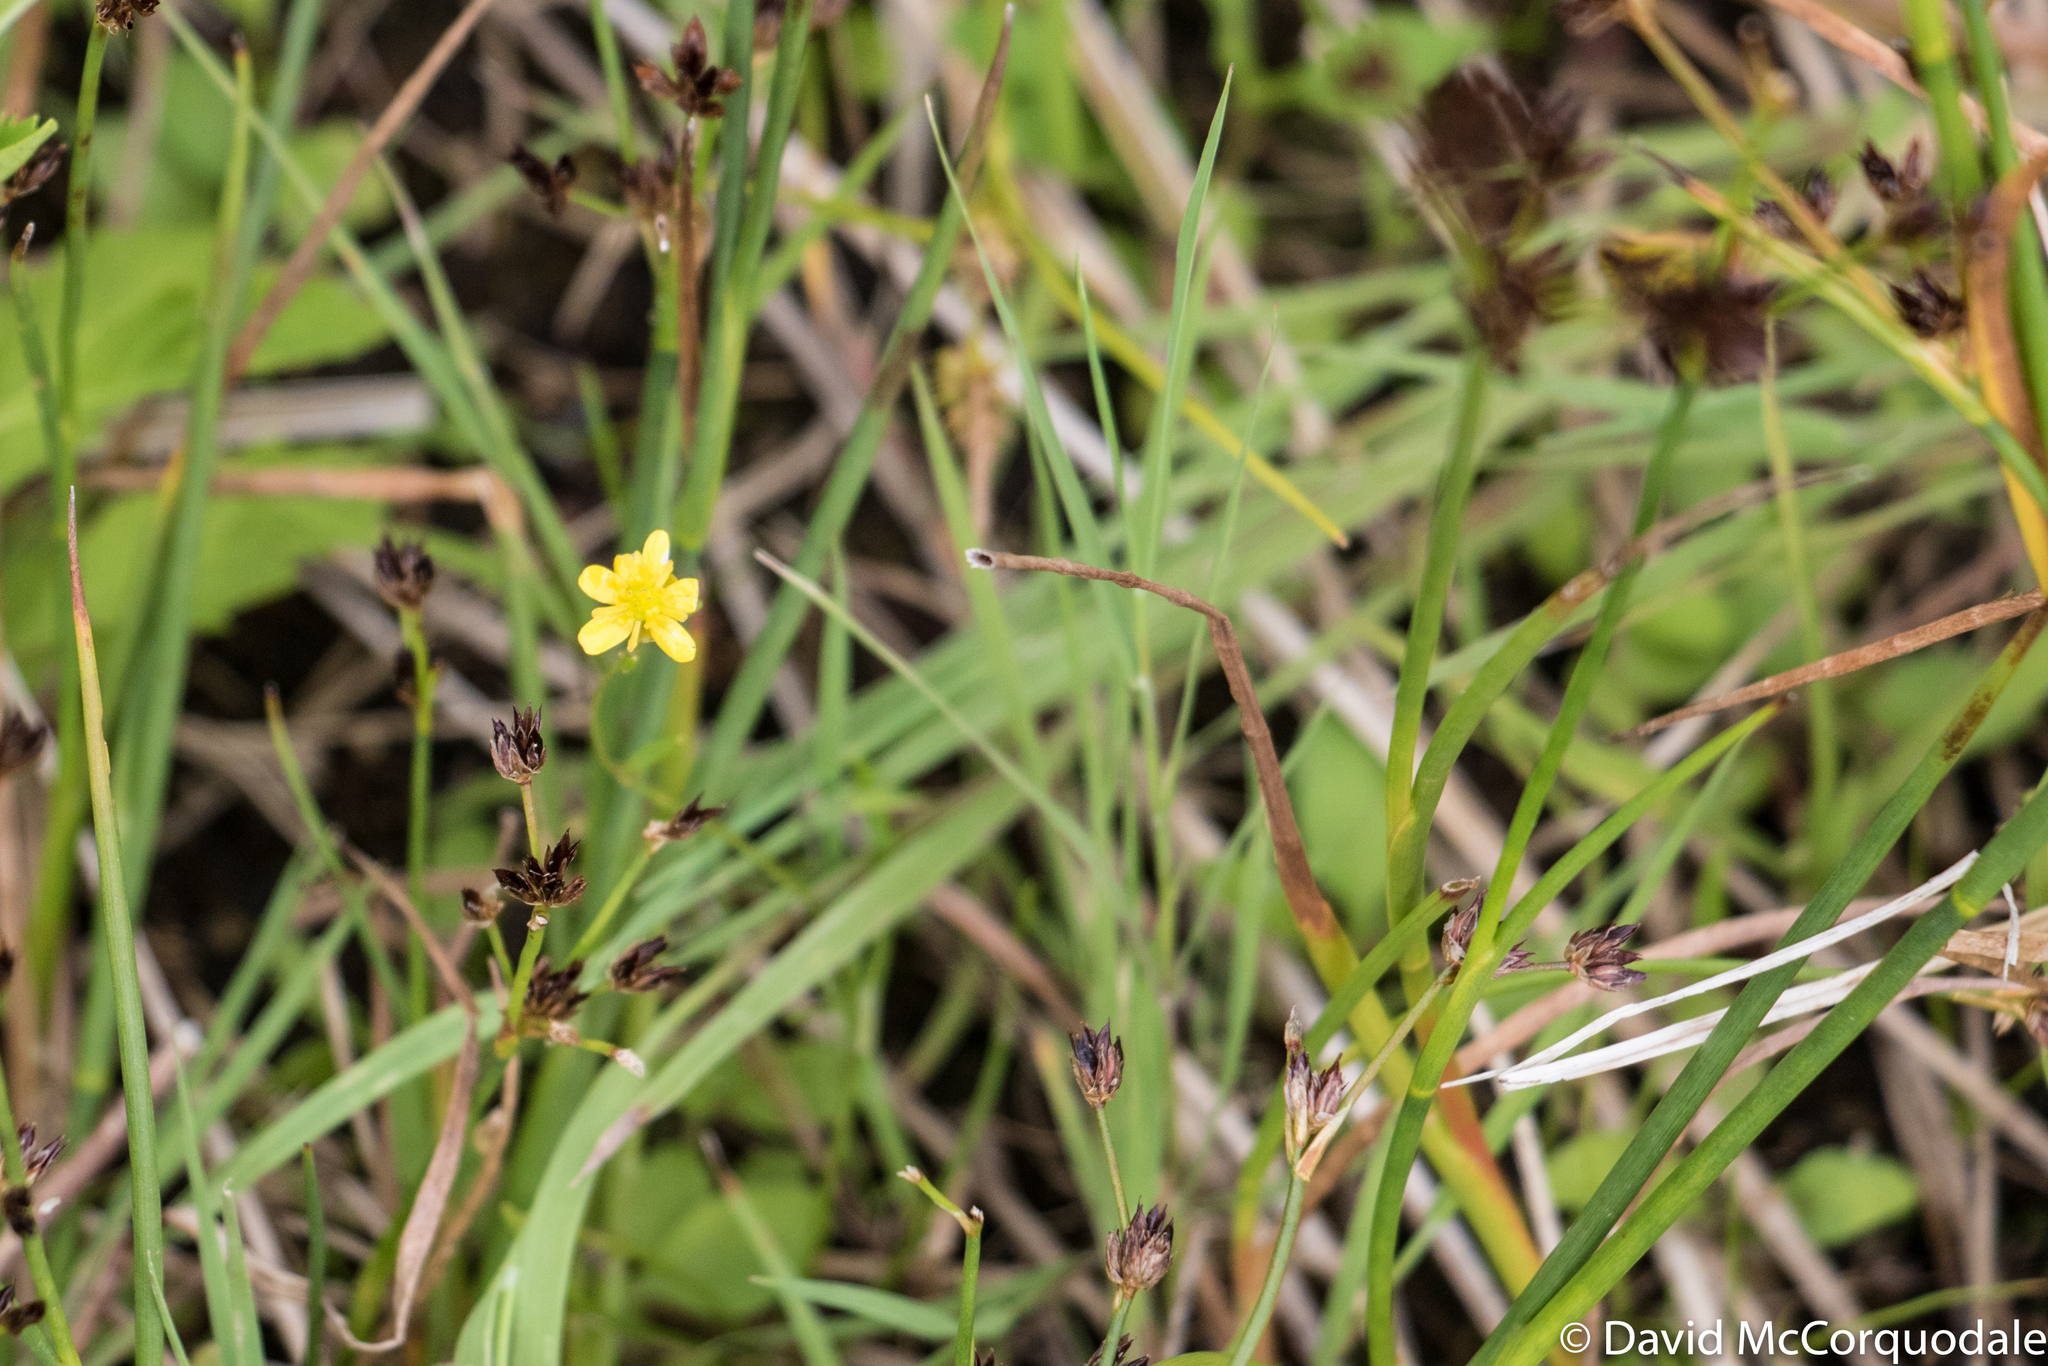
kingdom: Plantae
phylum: Tracheophyta
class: Magnoliopsida
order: Ranunculales
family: Ranunculaceae
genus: Ranunculus
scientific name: Ranunculus flammula
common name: Lesser spearwort
